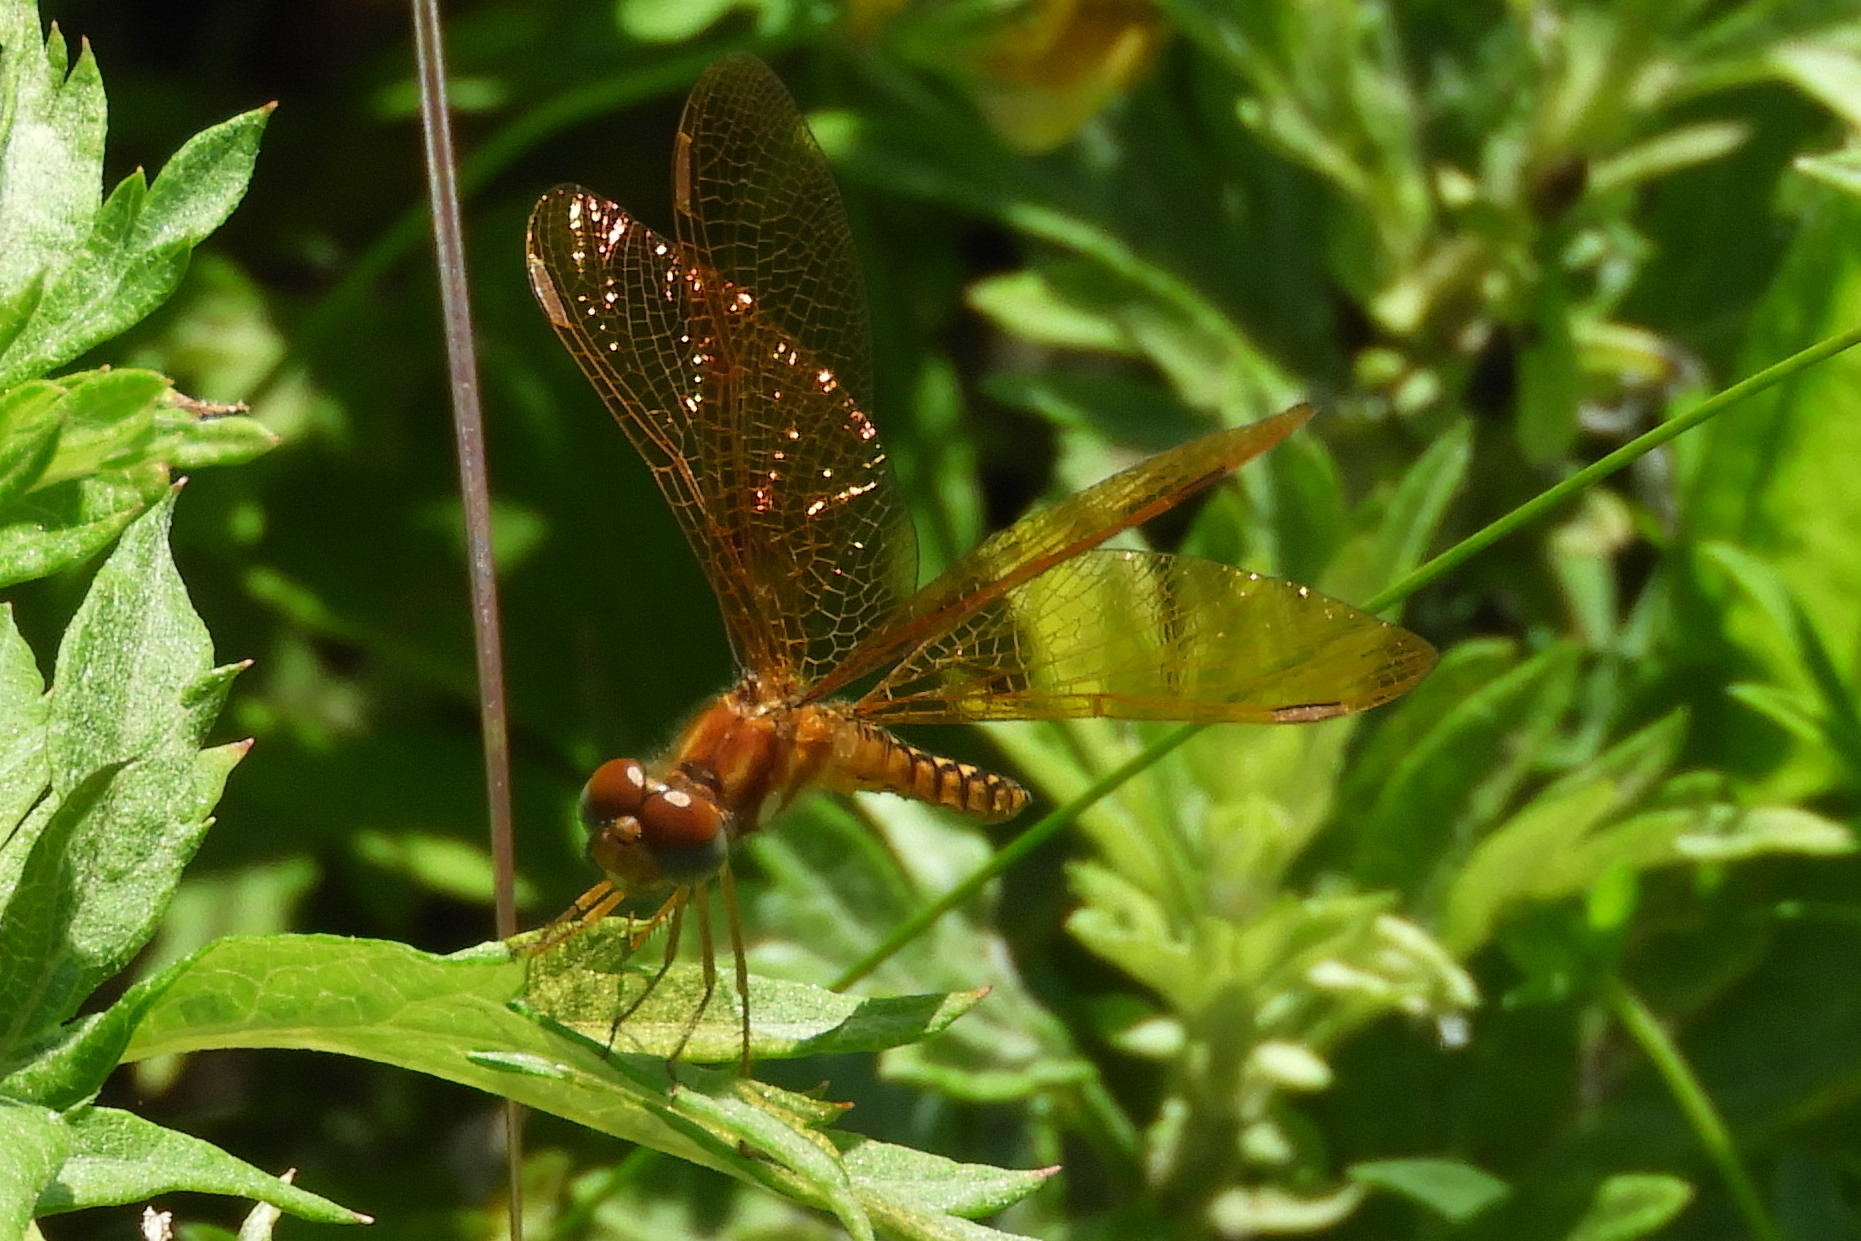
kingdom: Animalia
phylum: Arthropoda
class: Insecta
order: Odonata
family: Libellulidae
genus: Perithemis
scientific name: Perithemis tenera
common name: Eastern amberwing
